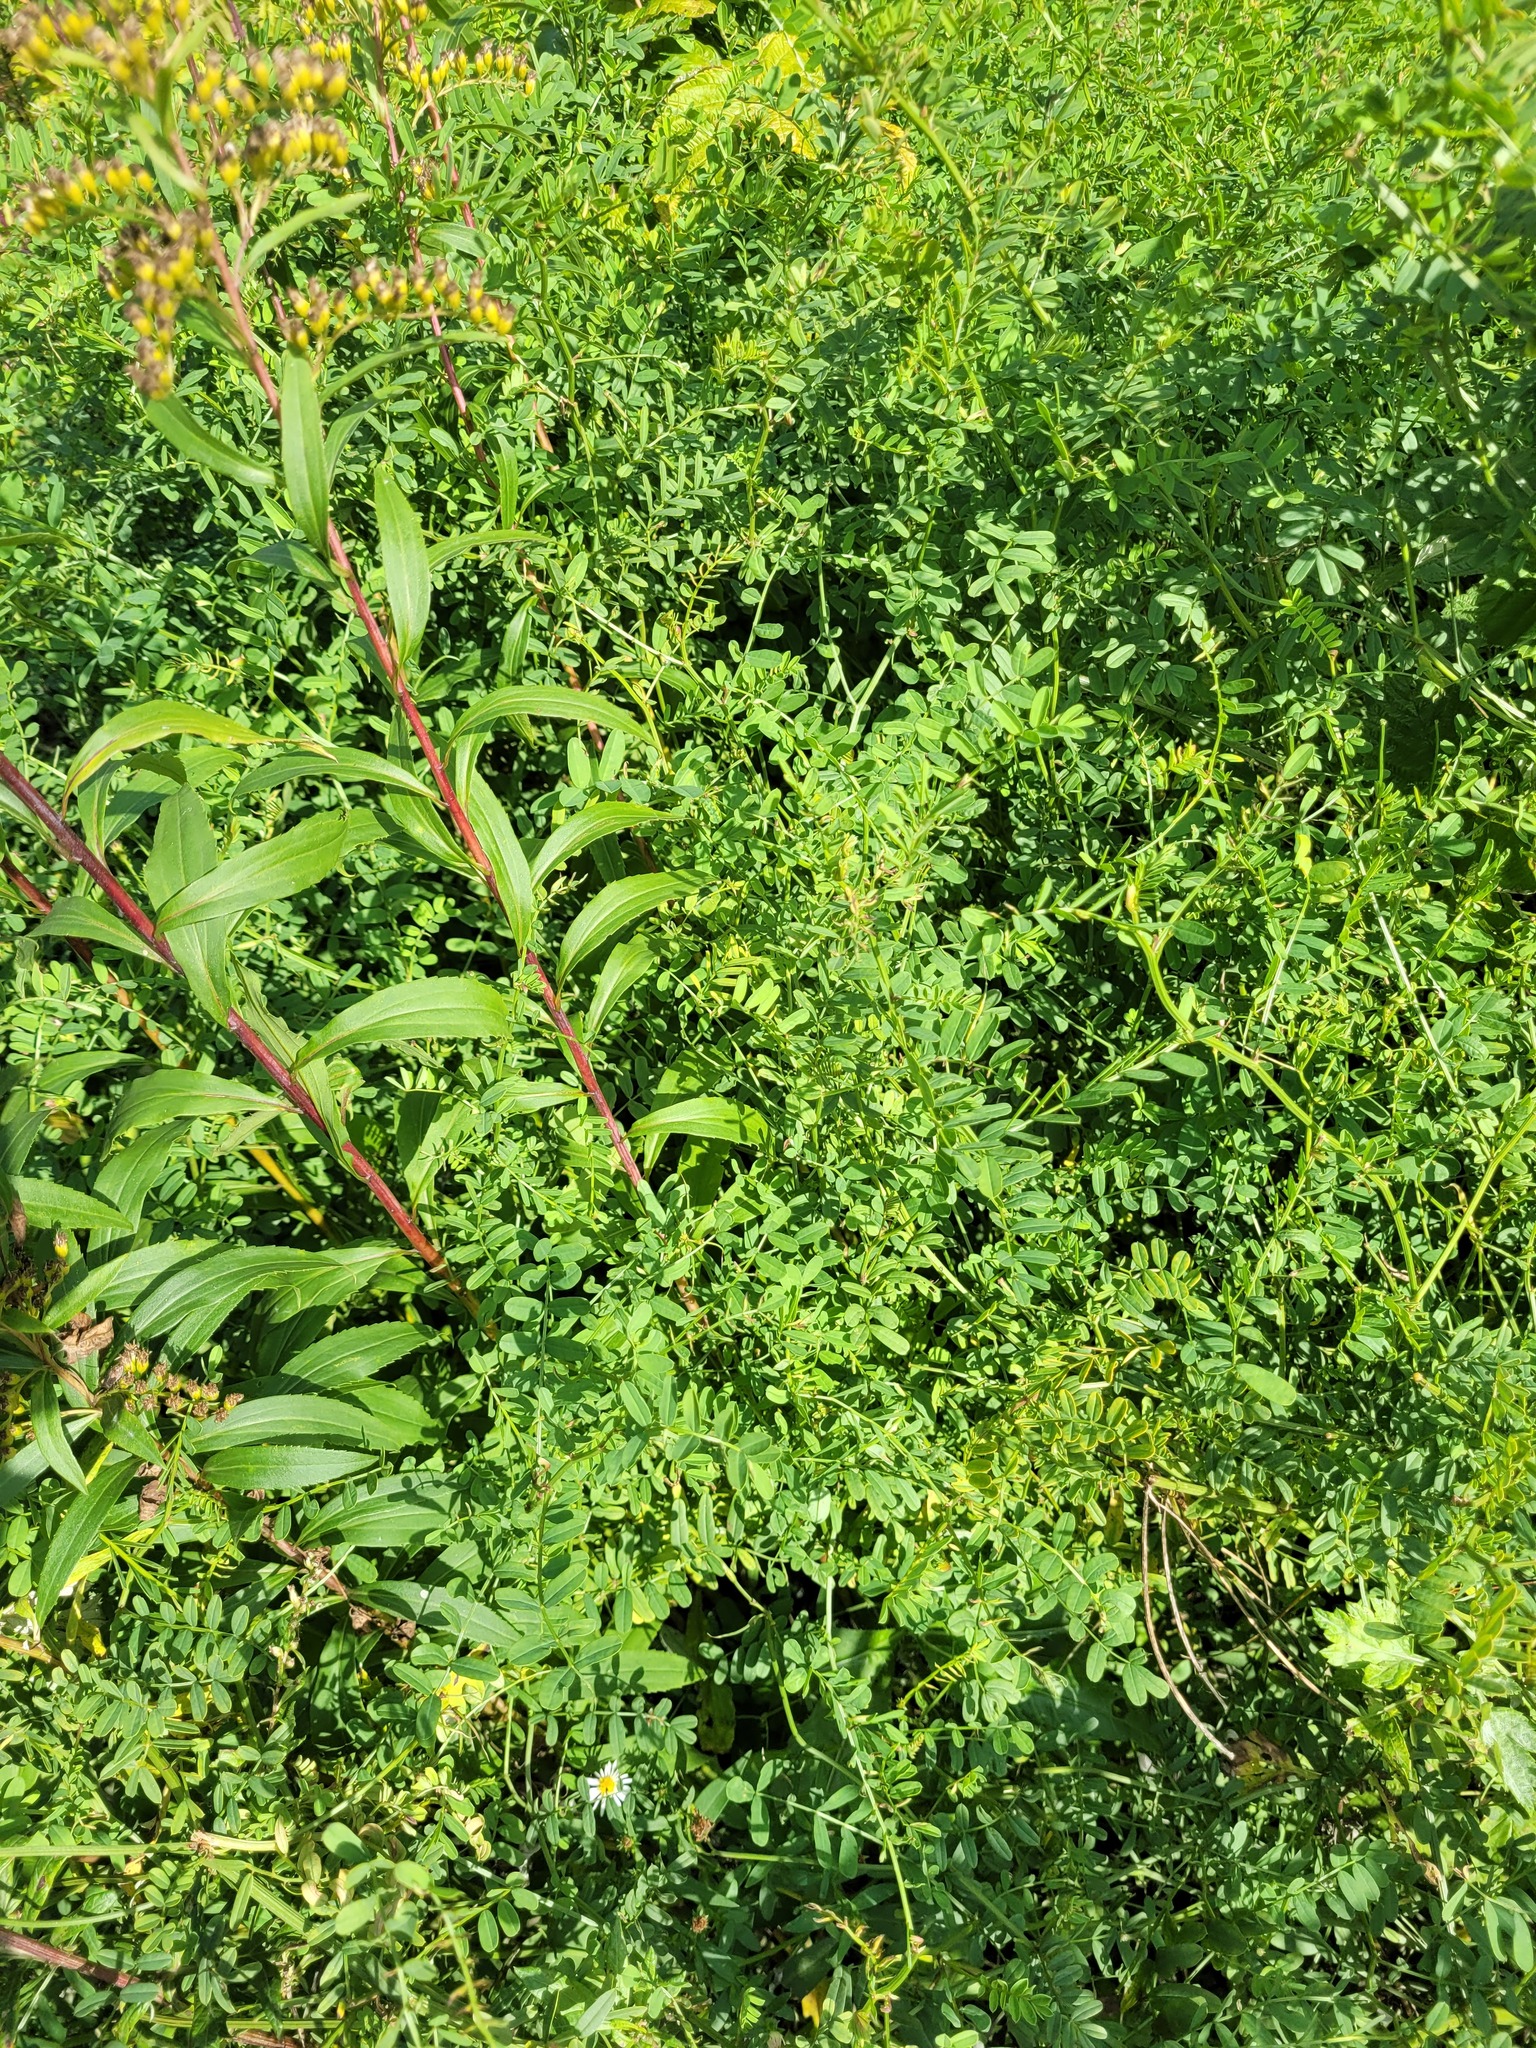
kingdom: Plantae
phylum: Tracheophyta
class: Magnoliopsida
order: Fabales
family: Fabaceae
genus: Coronilla
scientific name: Coronilla varia
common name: Crownvetch
